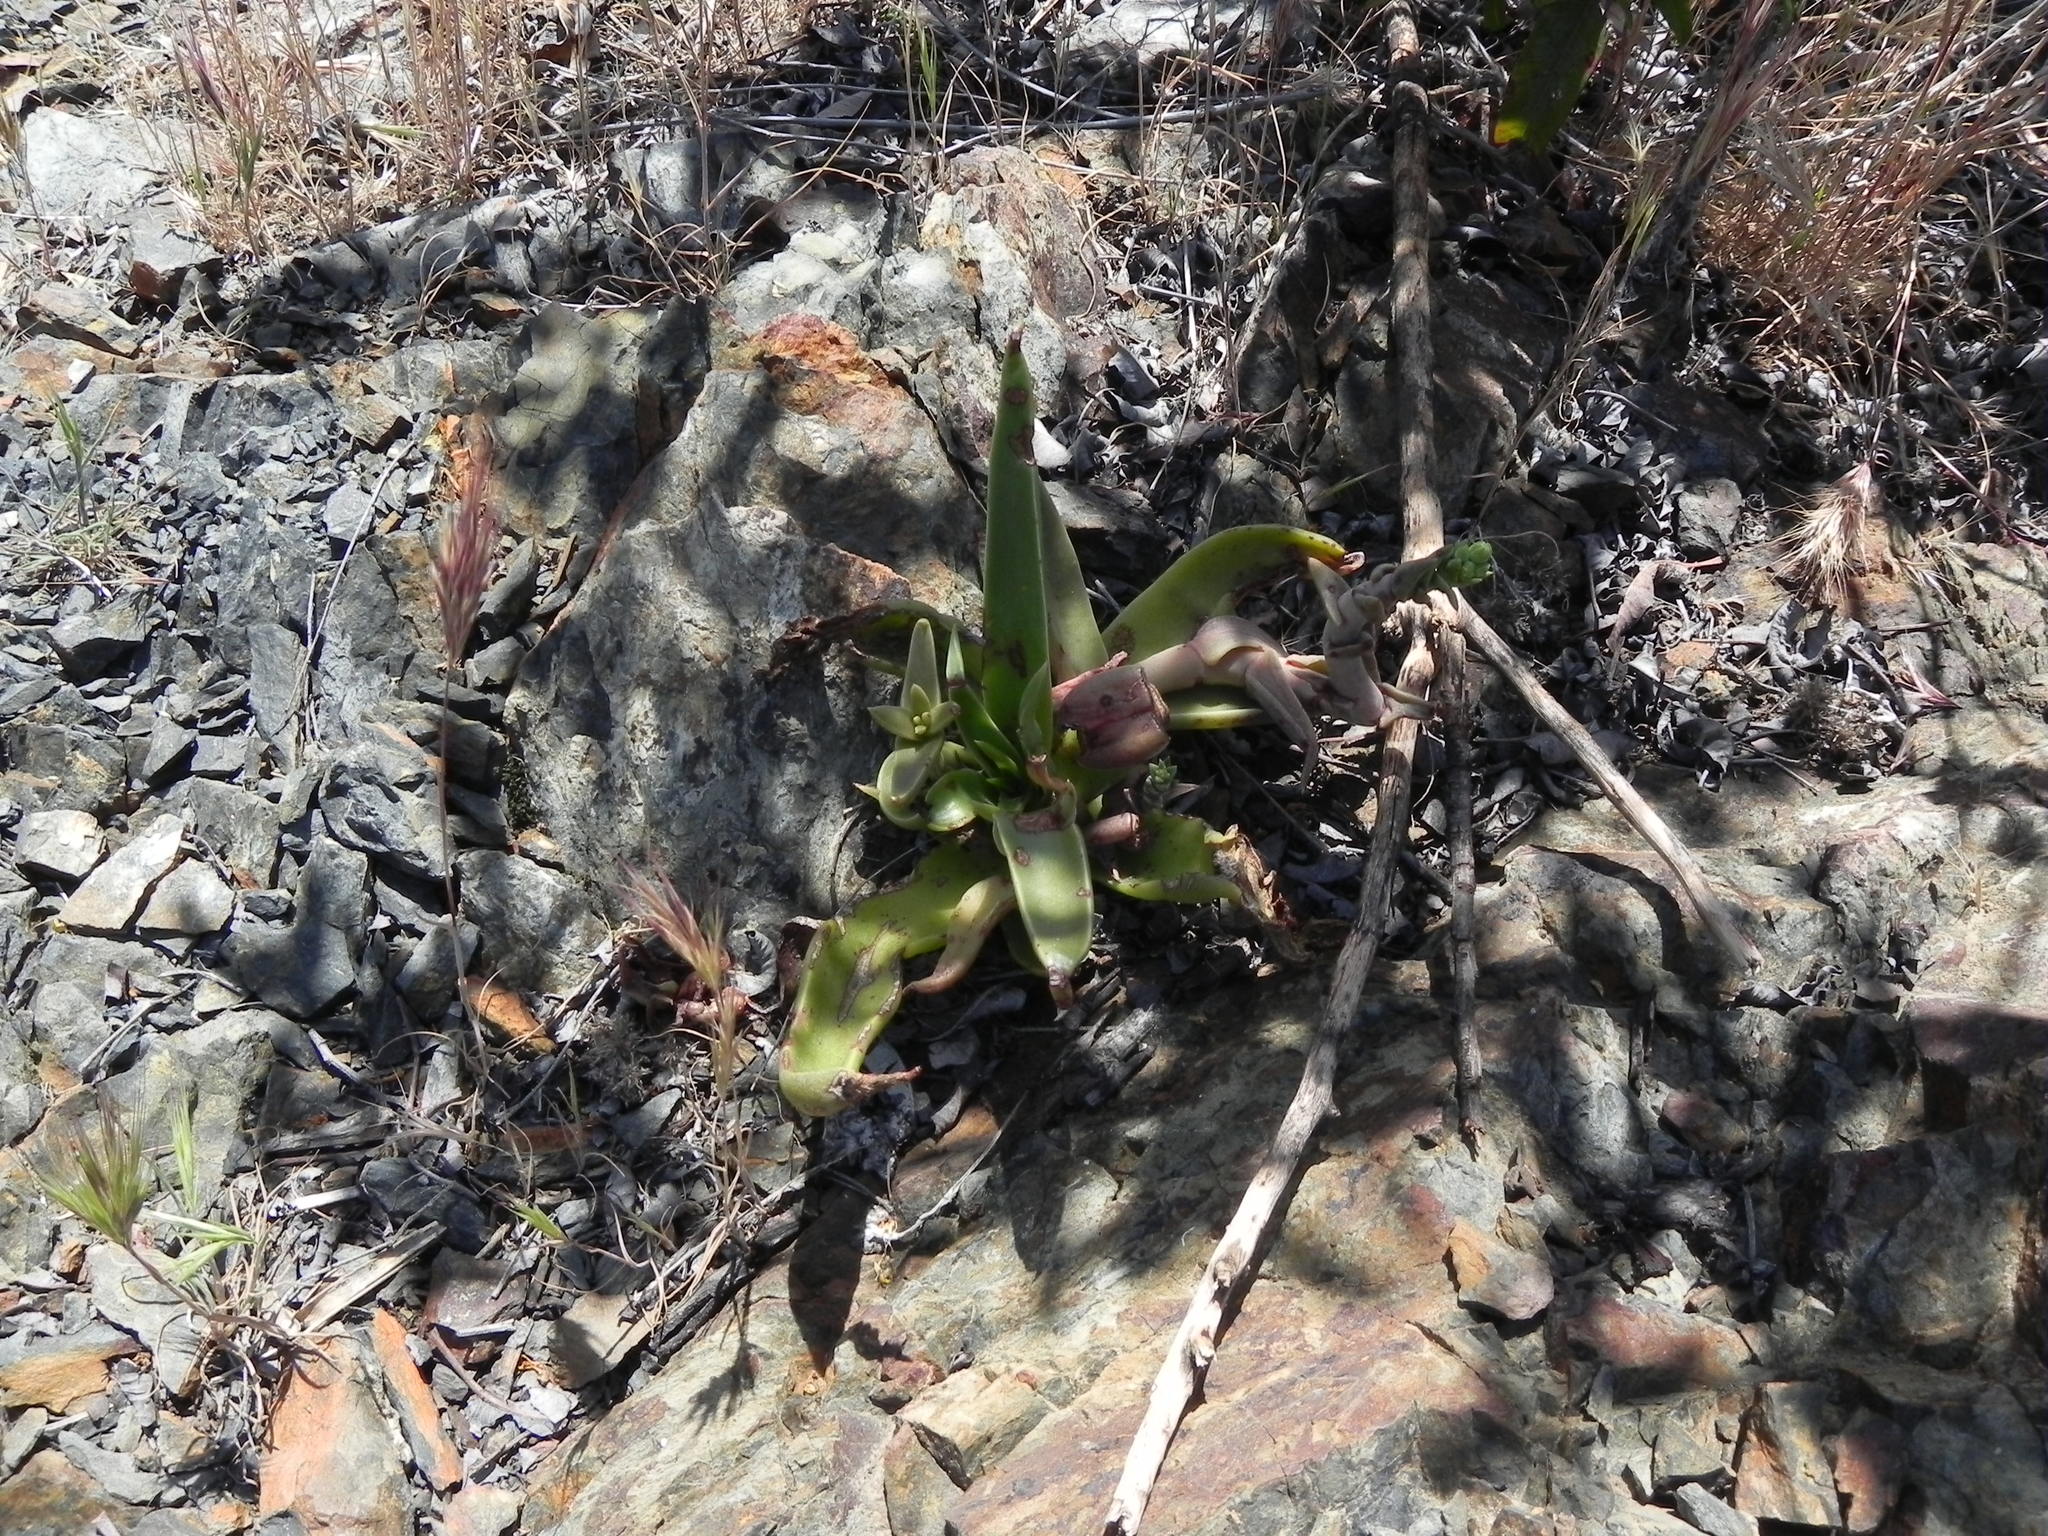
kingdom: Plantae
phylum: Tracheophyta
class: Magnoliopsida
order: Saxifragales
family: Crassulaceae
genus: Dudleya
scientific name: Dudleya lanceolata
